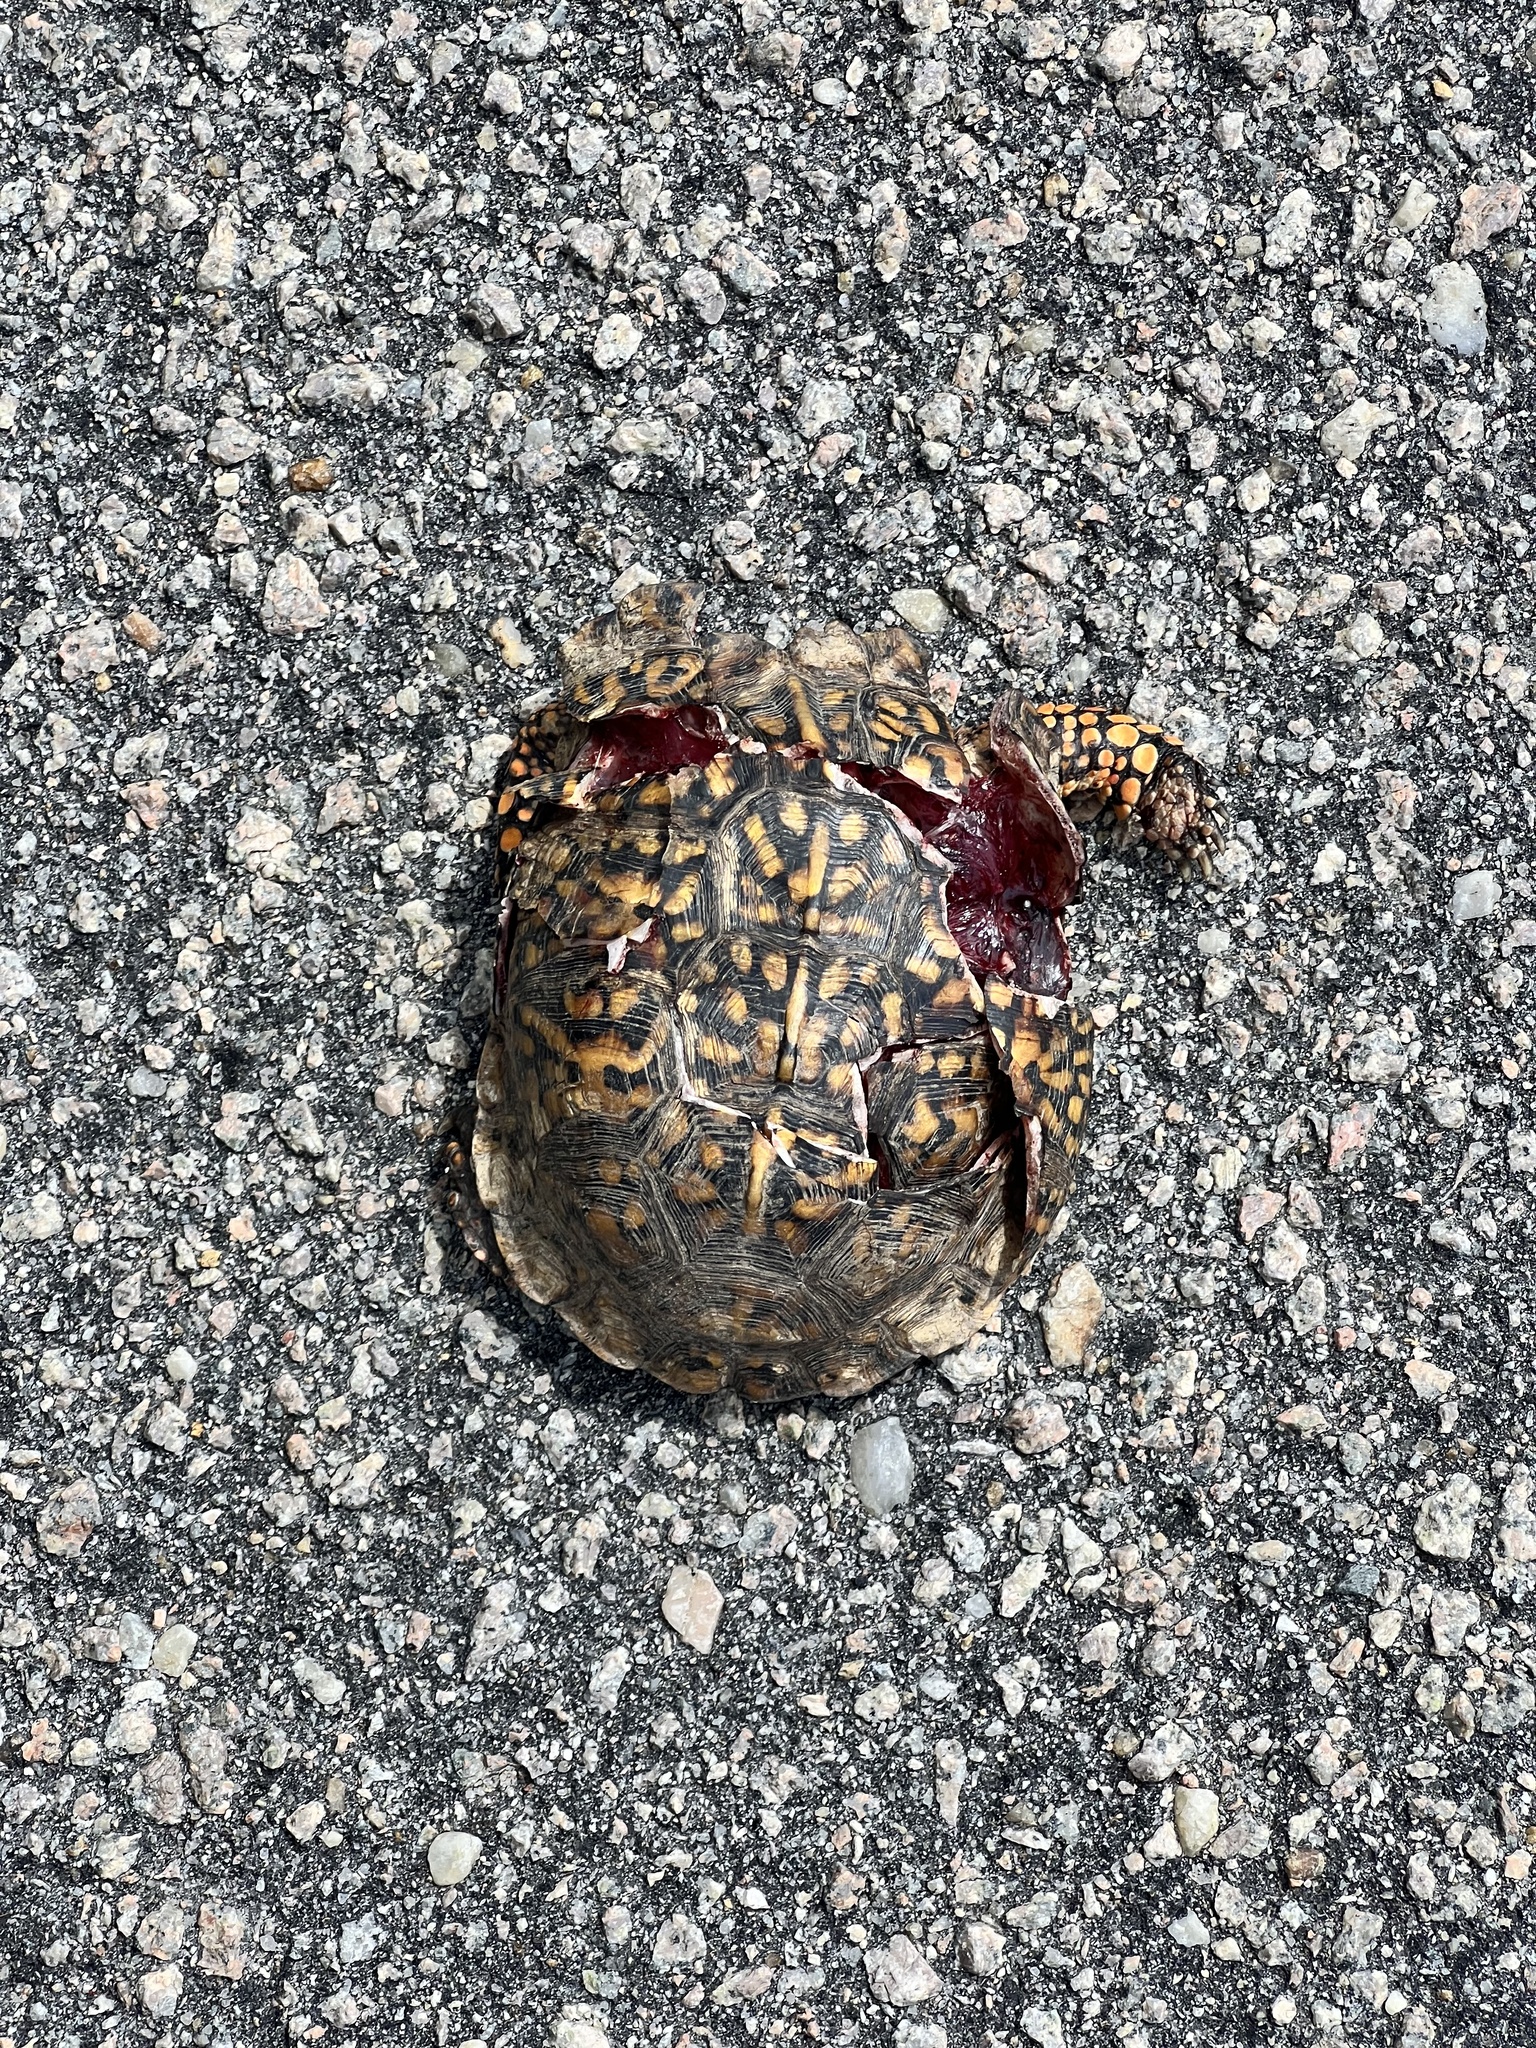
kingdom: Animalia
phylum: Chordata
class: Testudines
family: Emydidae
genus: Terrapene
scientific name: Terrapene carolina
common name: Common box turtle
